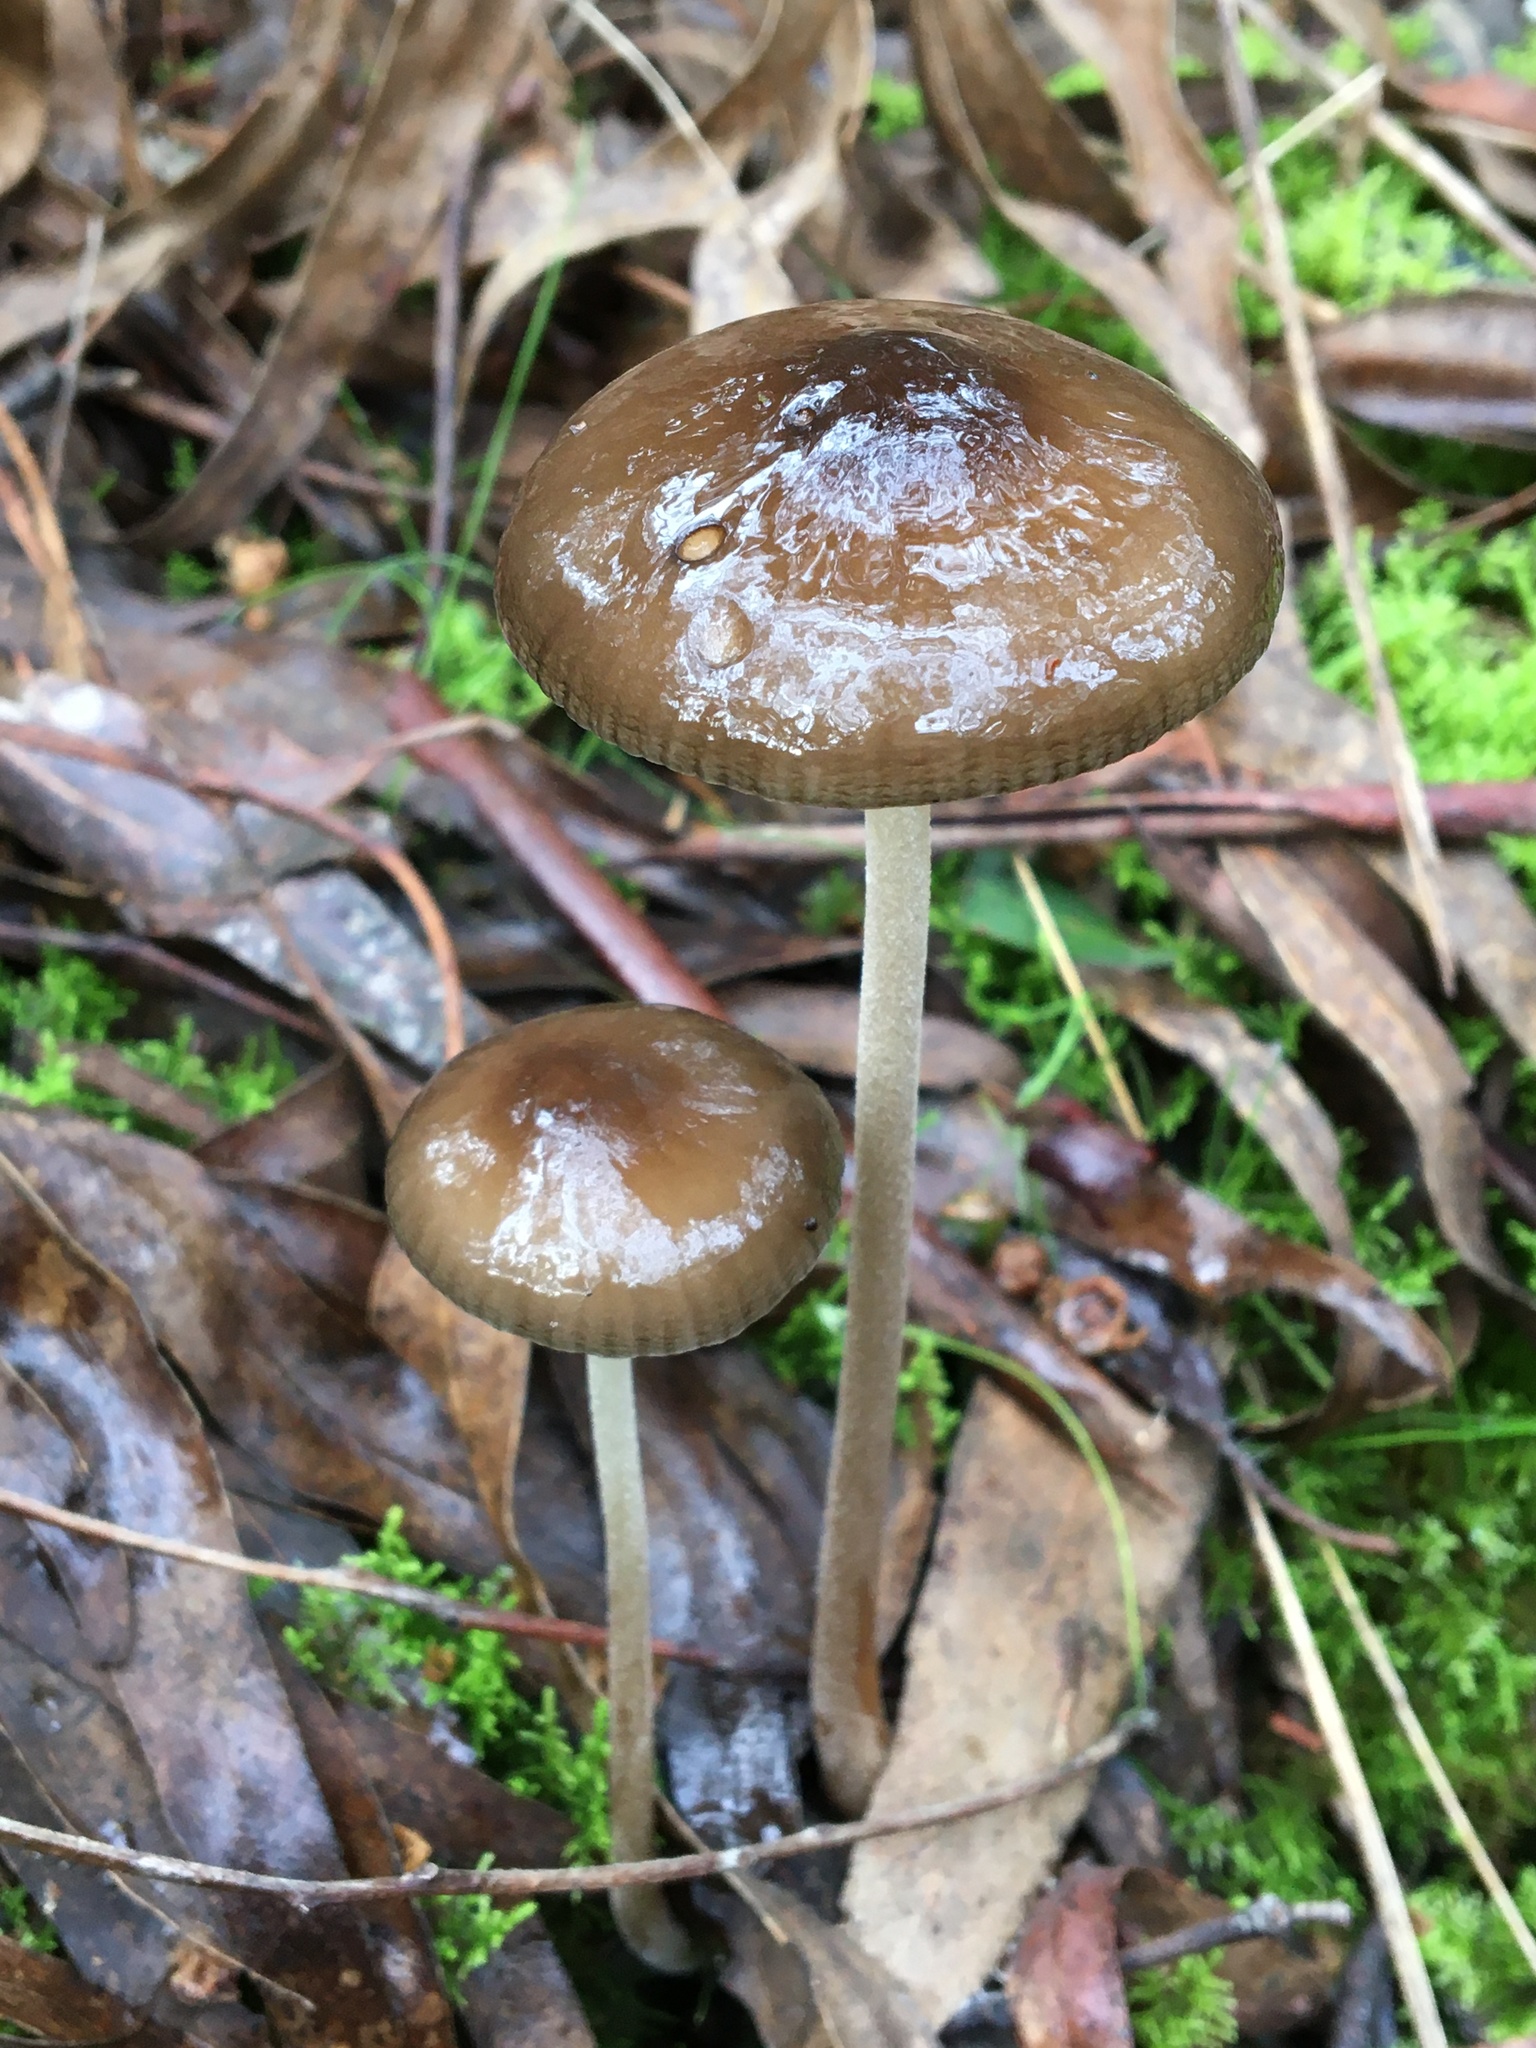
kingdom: Fungi
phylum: Basidiomycota
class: Agaricomycetes
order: Agaricales
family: Physalacriaceae
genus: Hymenopellis
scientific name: Hymenopellis gigaspora
